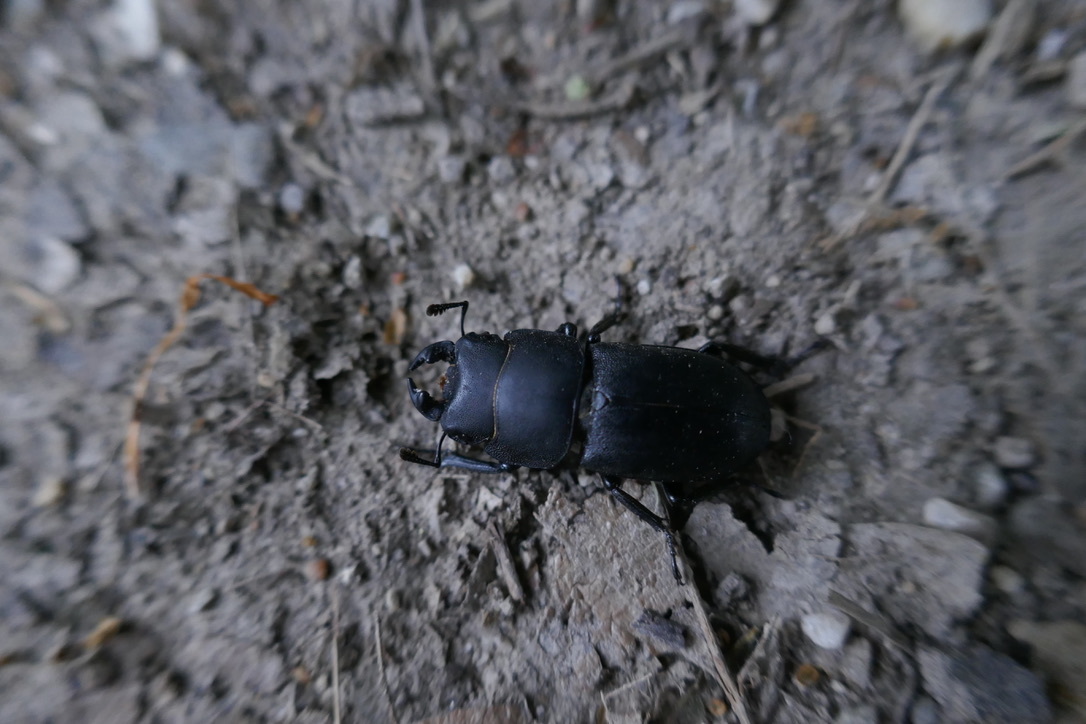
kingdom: Animalia
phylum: Arthropoda
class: Insecta
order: Coleoptera
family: Lucanidae
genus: Dorcus
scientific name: Dorcus parallelipipedus
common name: Lesser stag beetle
